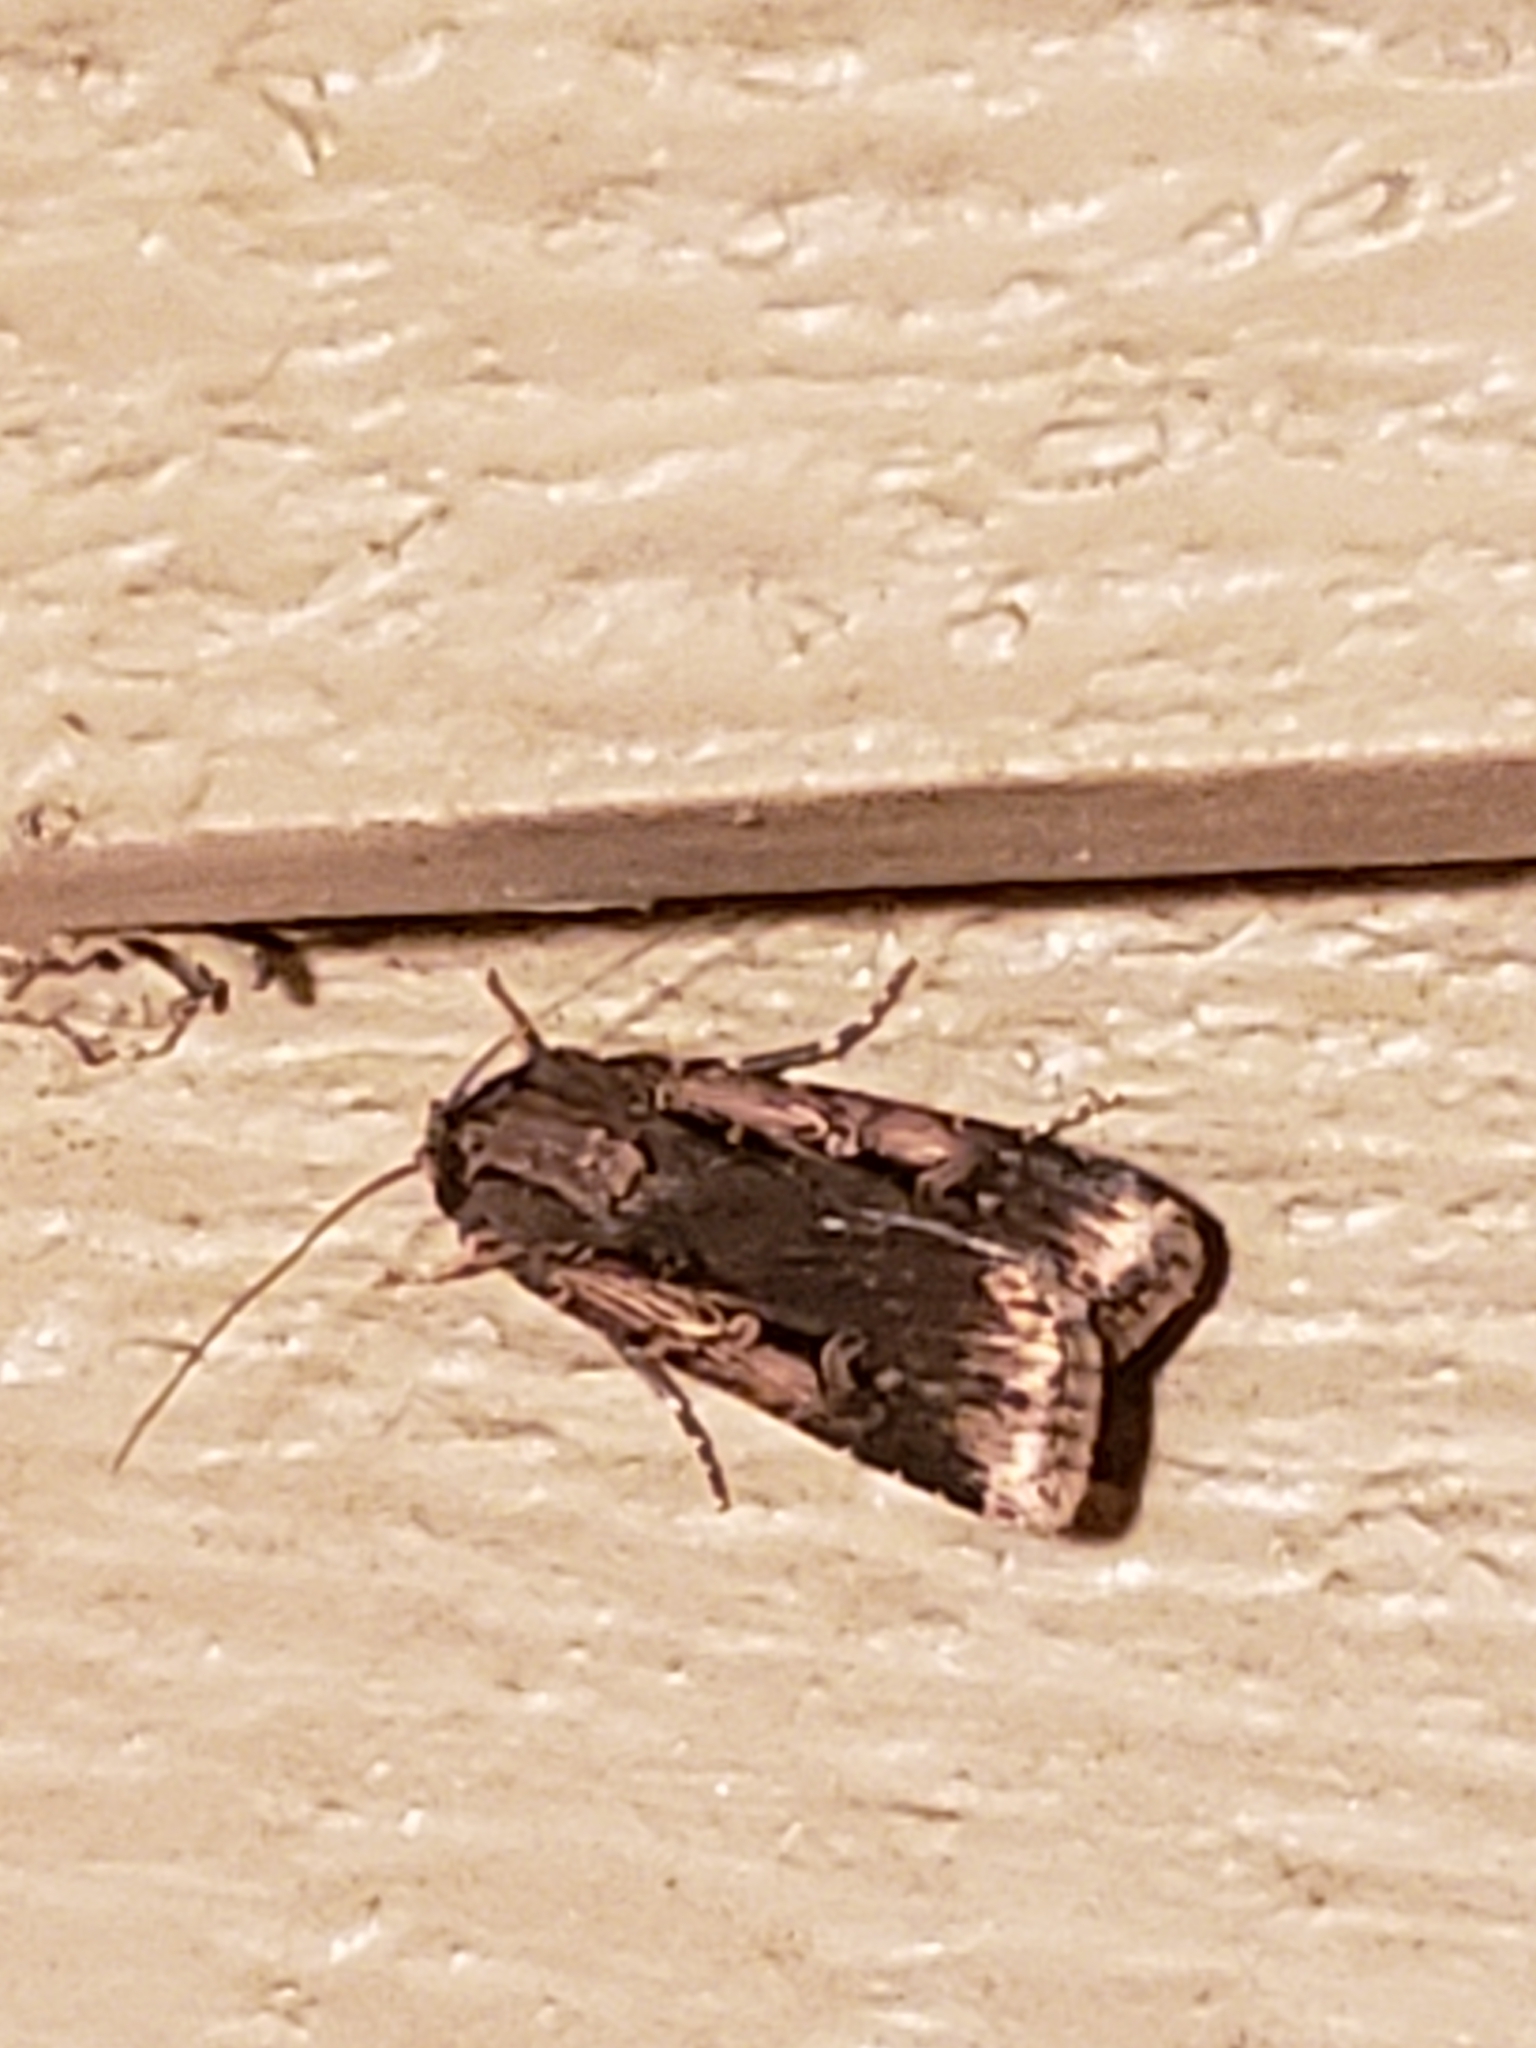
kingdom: Animalia
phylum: Arthropoda
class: Insecta
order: Lepidoptera
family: Noctuidae
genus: Feltia
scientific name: Feltia subterranea
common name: Granulate cutworm
